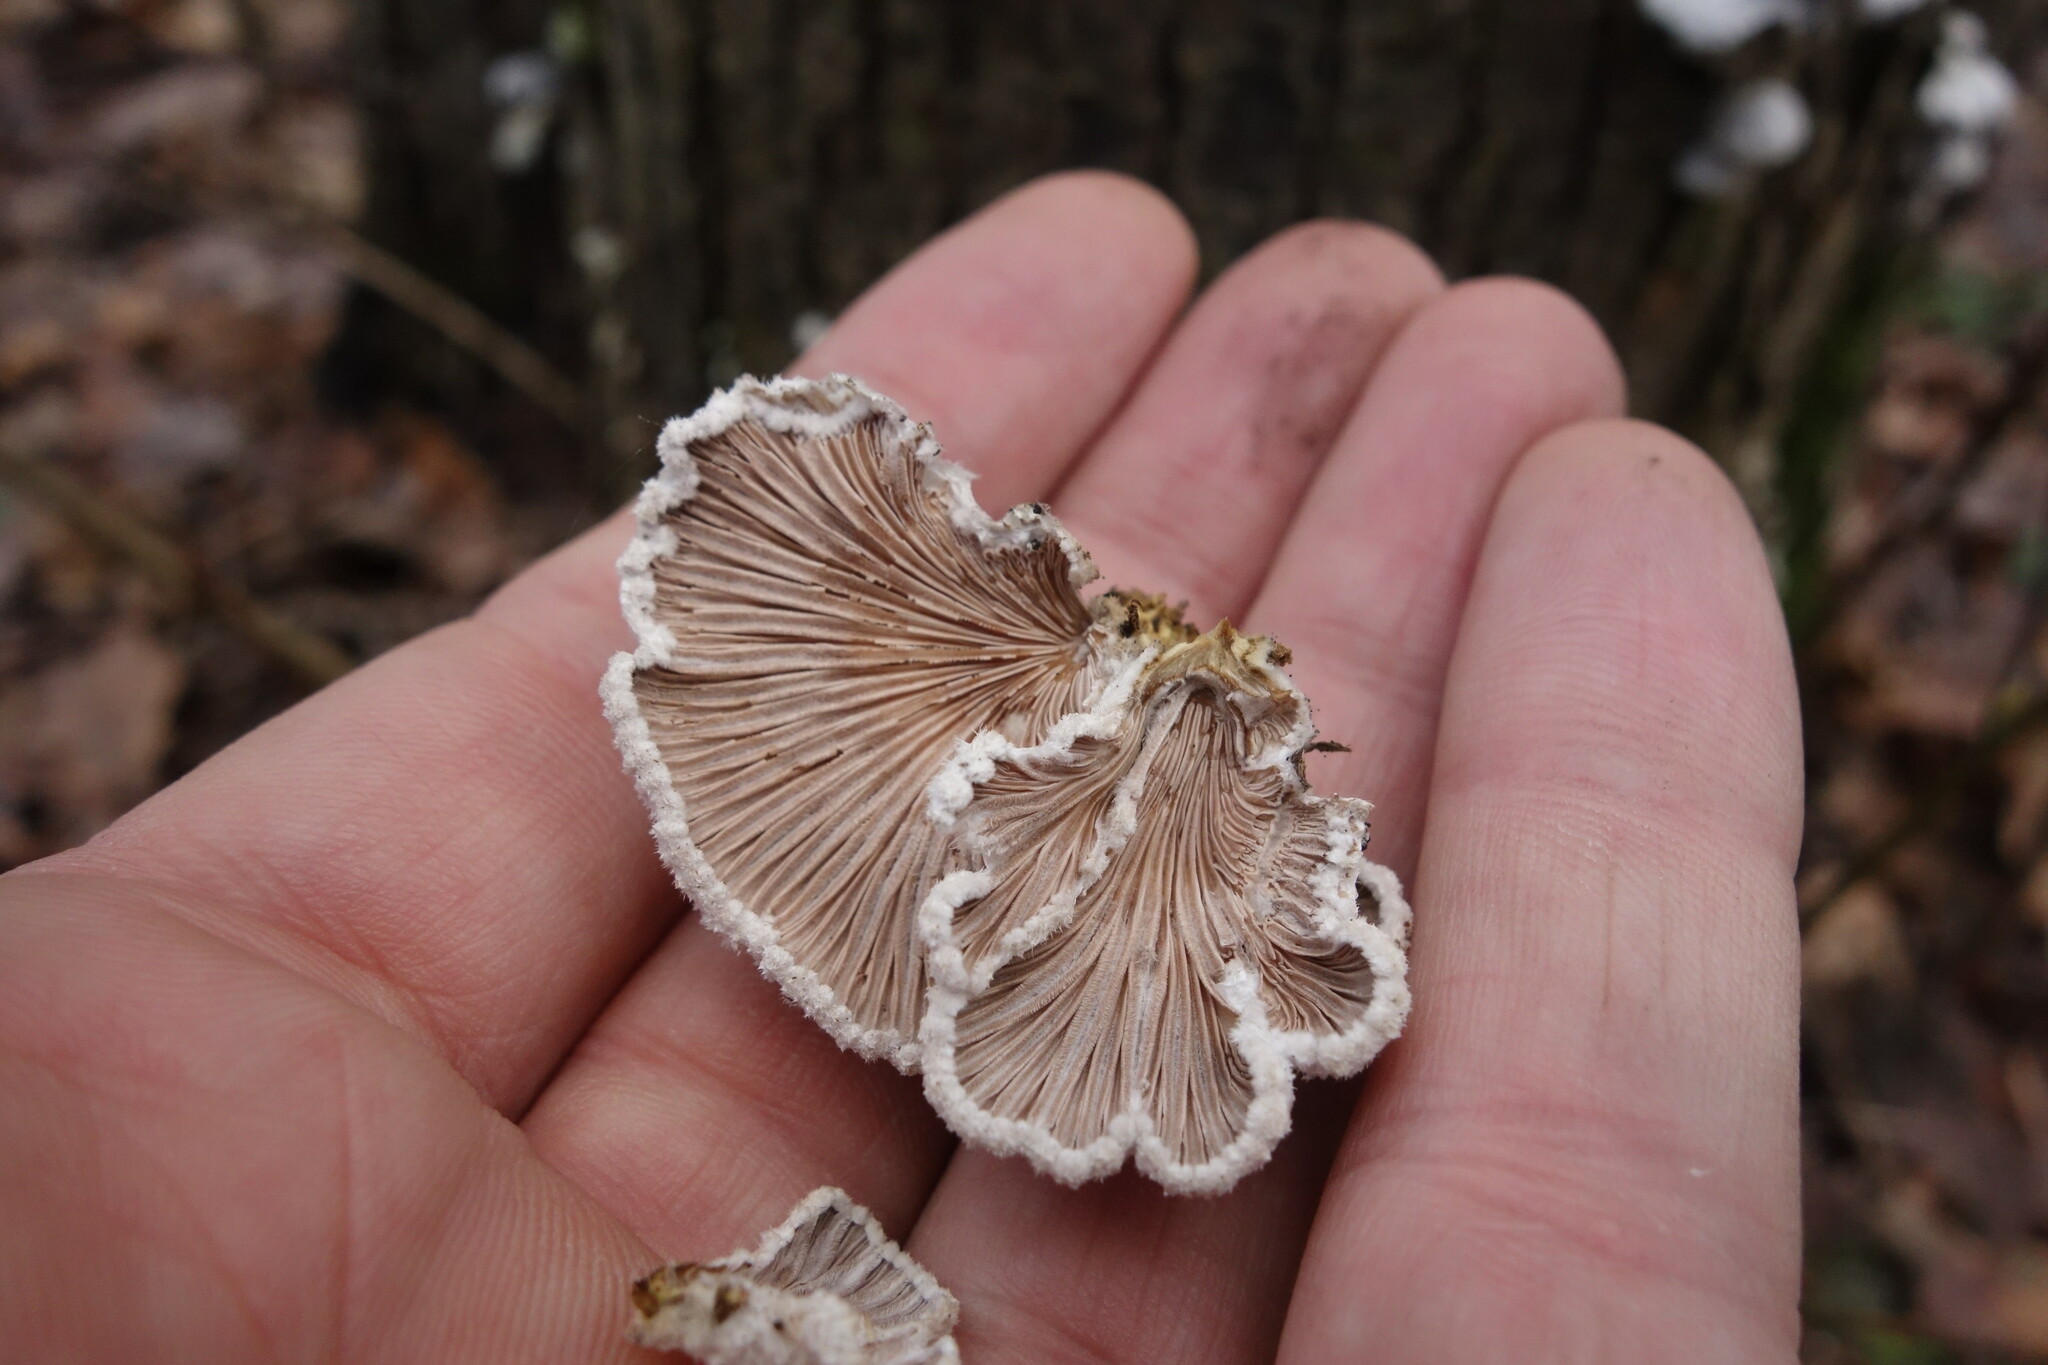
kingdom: Fungi
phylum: Basidiomycota
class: Agaricomycetes
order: Agaricales
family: Schizophyllaceae
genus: Schizophyllum
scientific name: Schizophyllum commune
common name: Common porecrust
